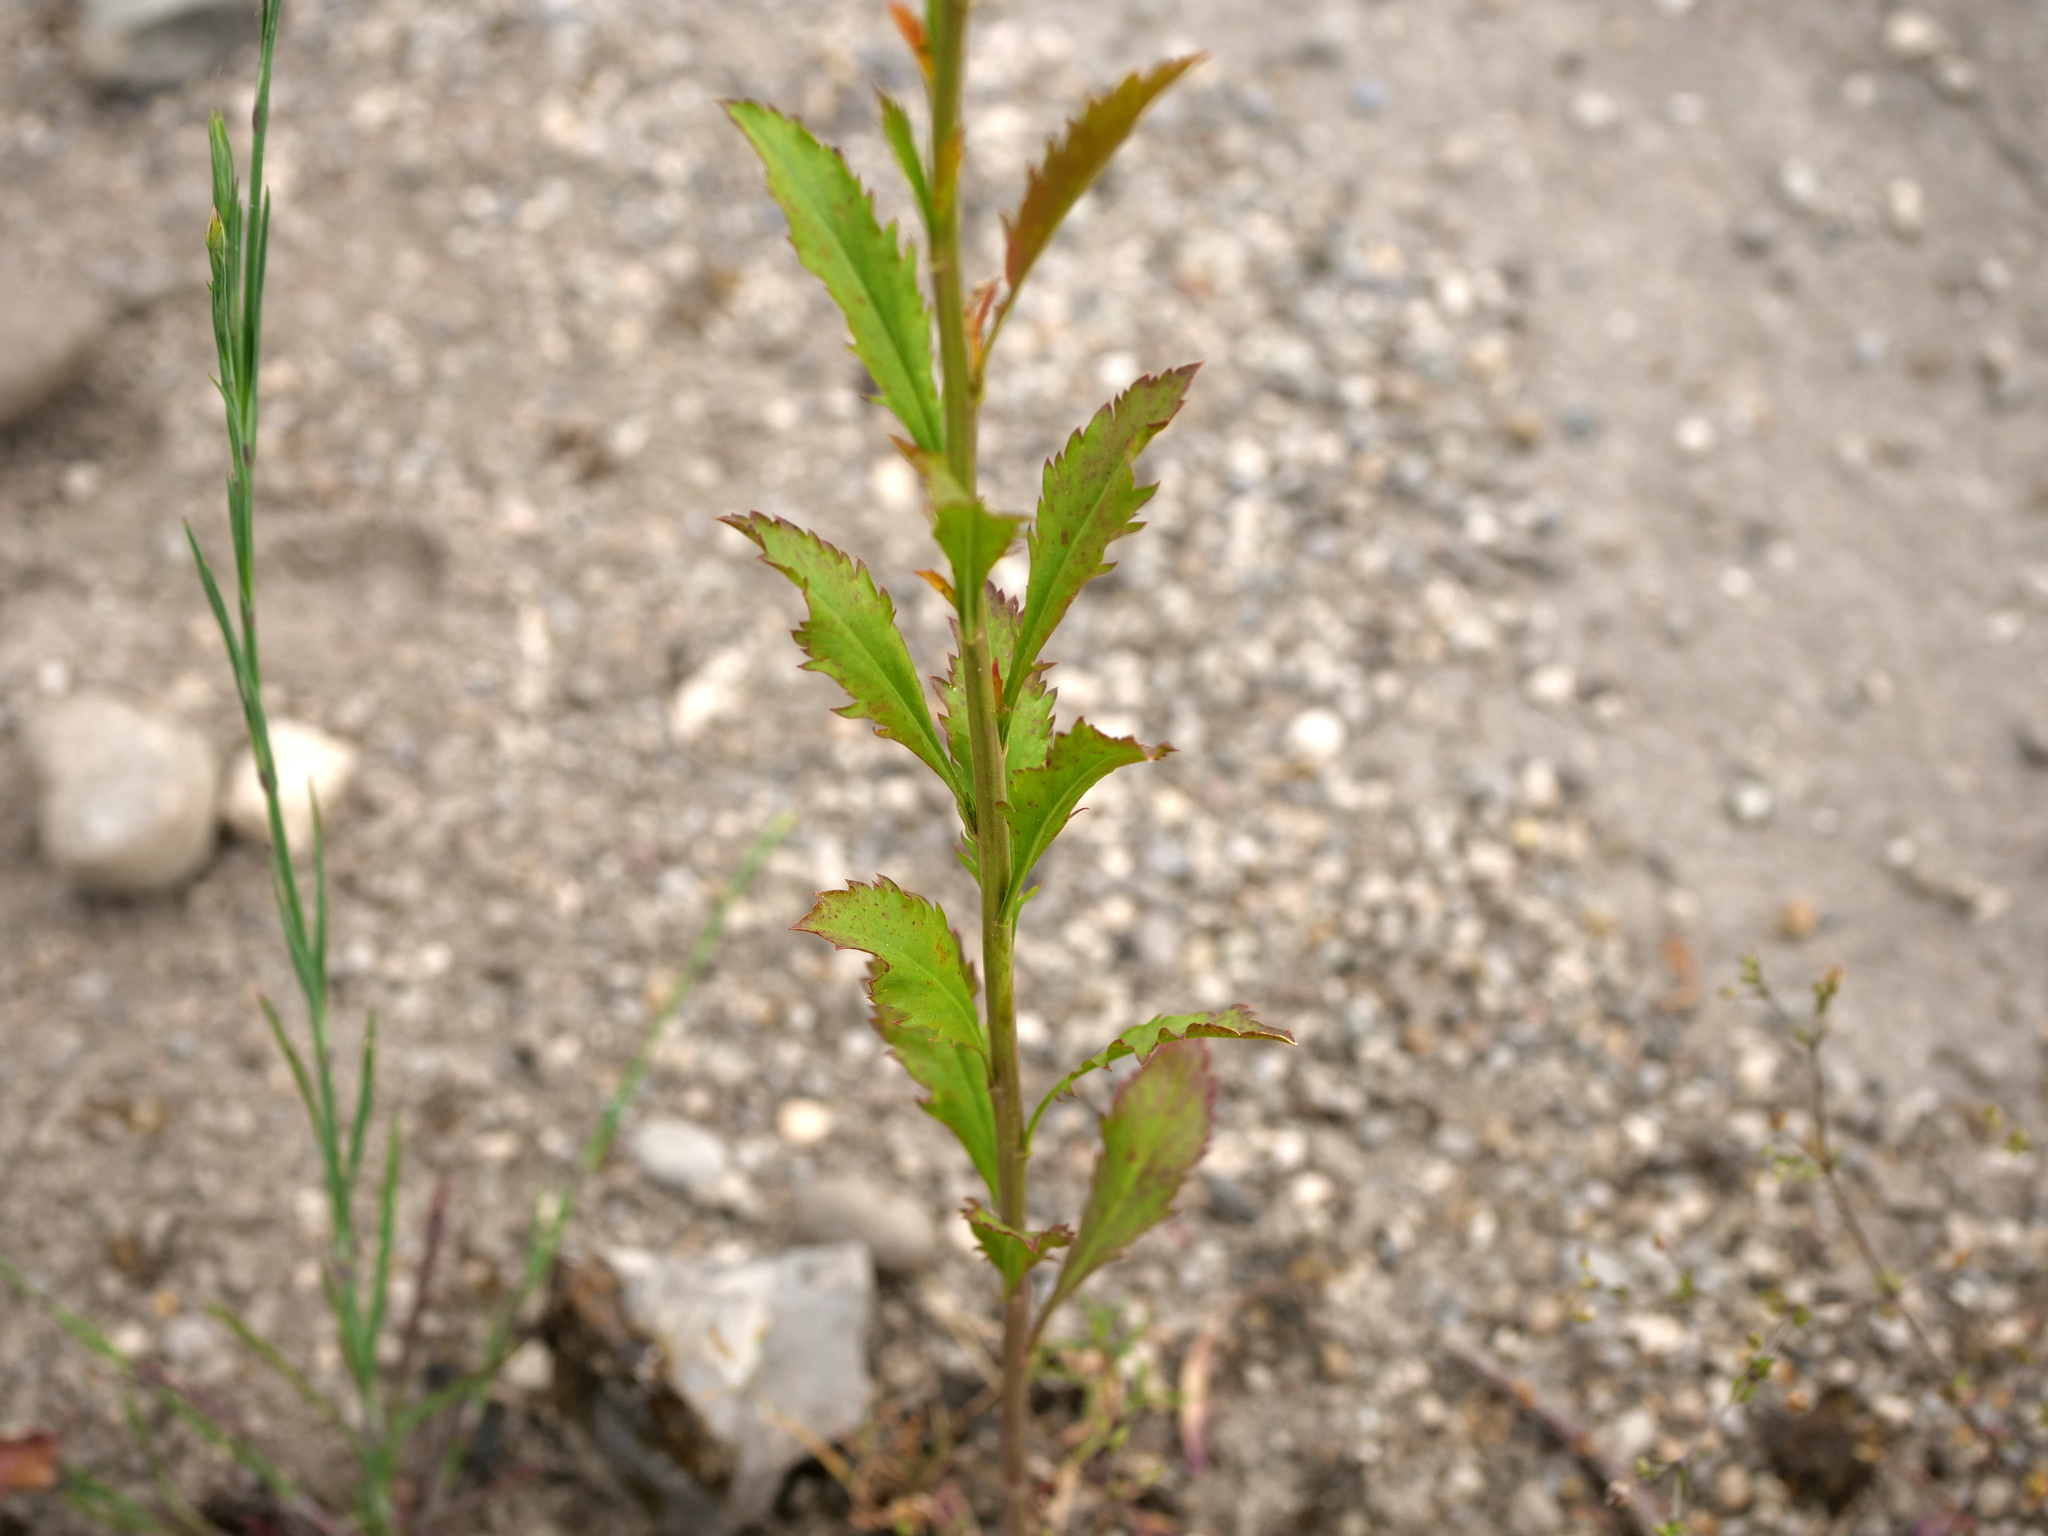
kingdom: Plantae
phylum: Tracheophyta
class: Magnoliopsida
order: Brassicales
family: Brassicaceae
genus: Lepidium
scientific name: Lepidium virginicum
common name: Least pepperwort
